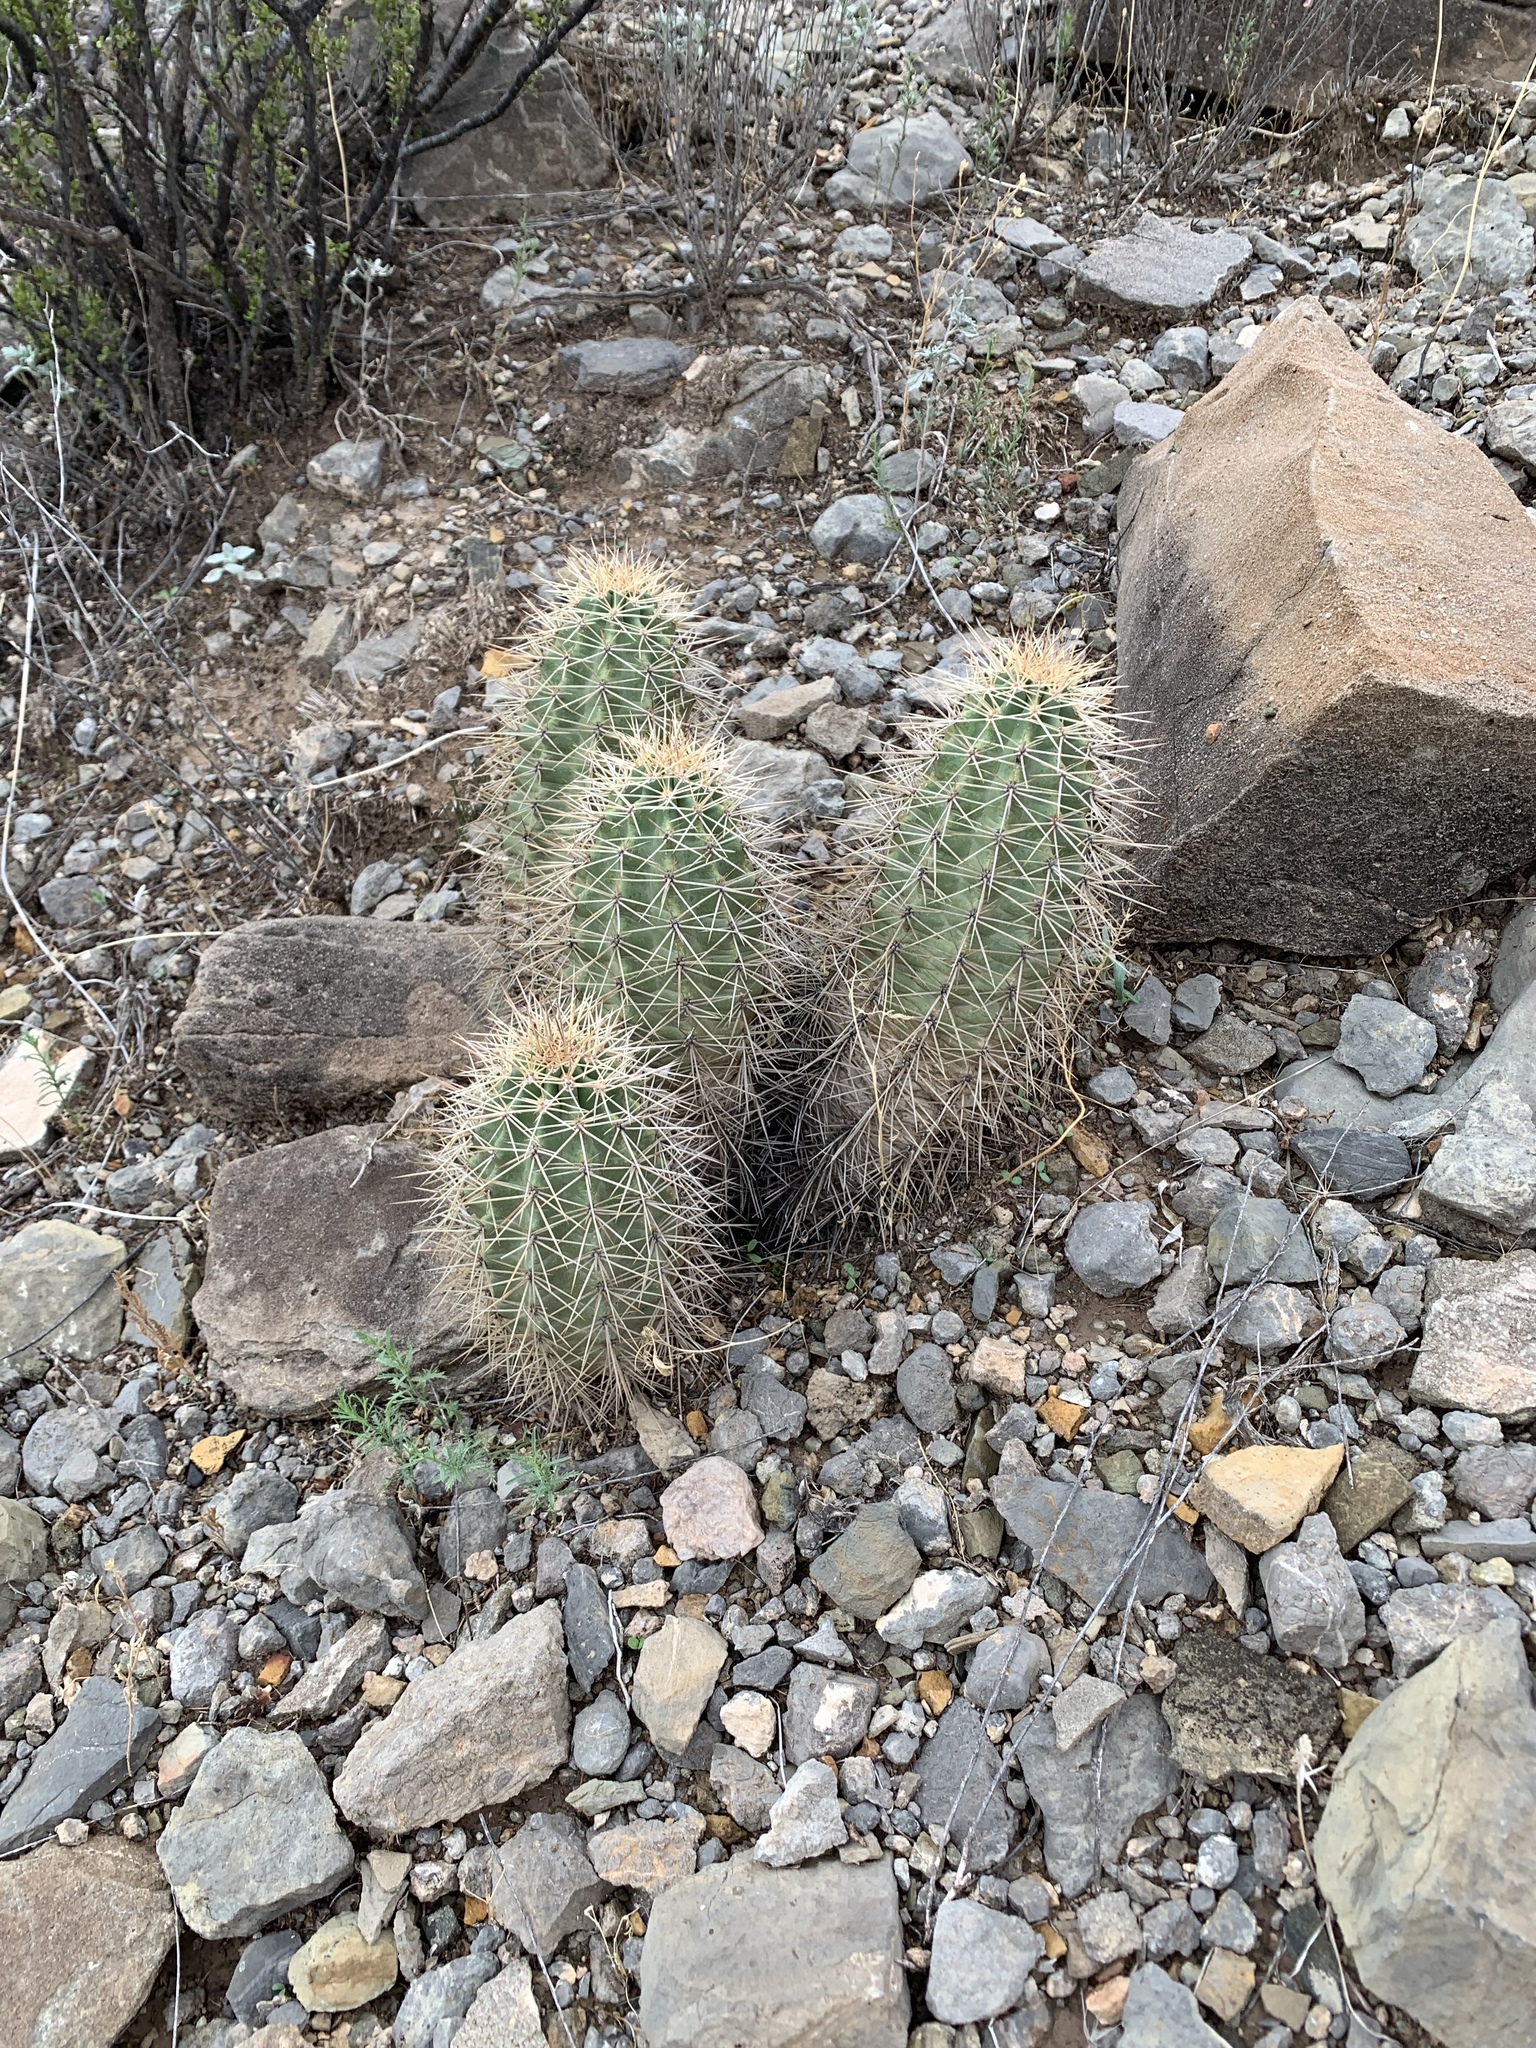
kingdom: Plantae
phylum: Tracheophyta
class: Magnoliopsida
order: Caryophyllales
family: Cactaceae
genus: Echinocereus
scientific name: Echinocereus coccineus
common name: Scarlet hedgehog cactus
